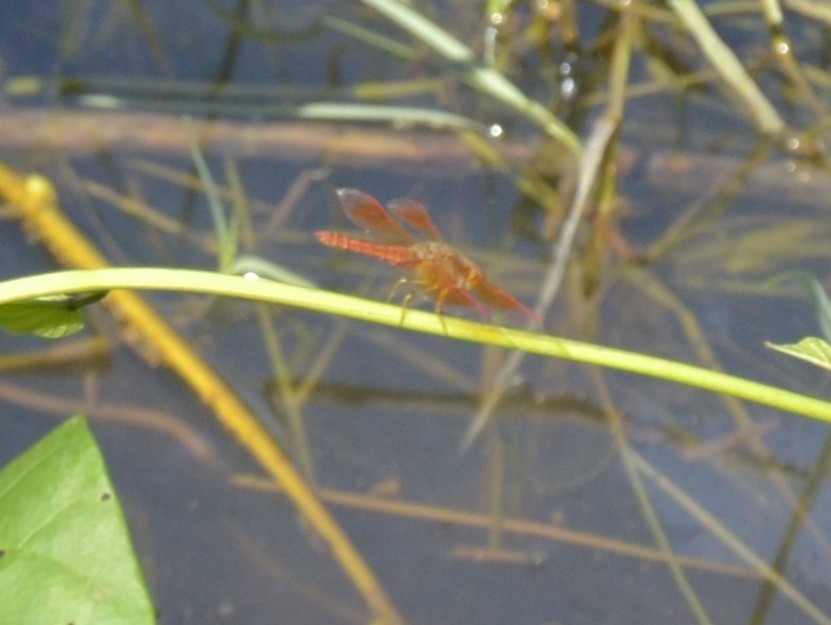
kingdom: Animalia
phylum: Arthropoda
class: Insecta
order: Odonata
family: Libellulidae
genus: Brachythemis
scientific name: Brachythemis contaminata
